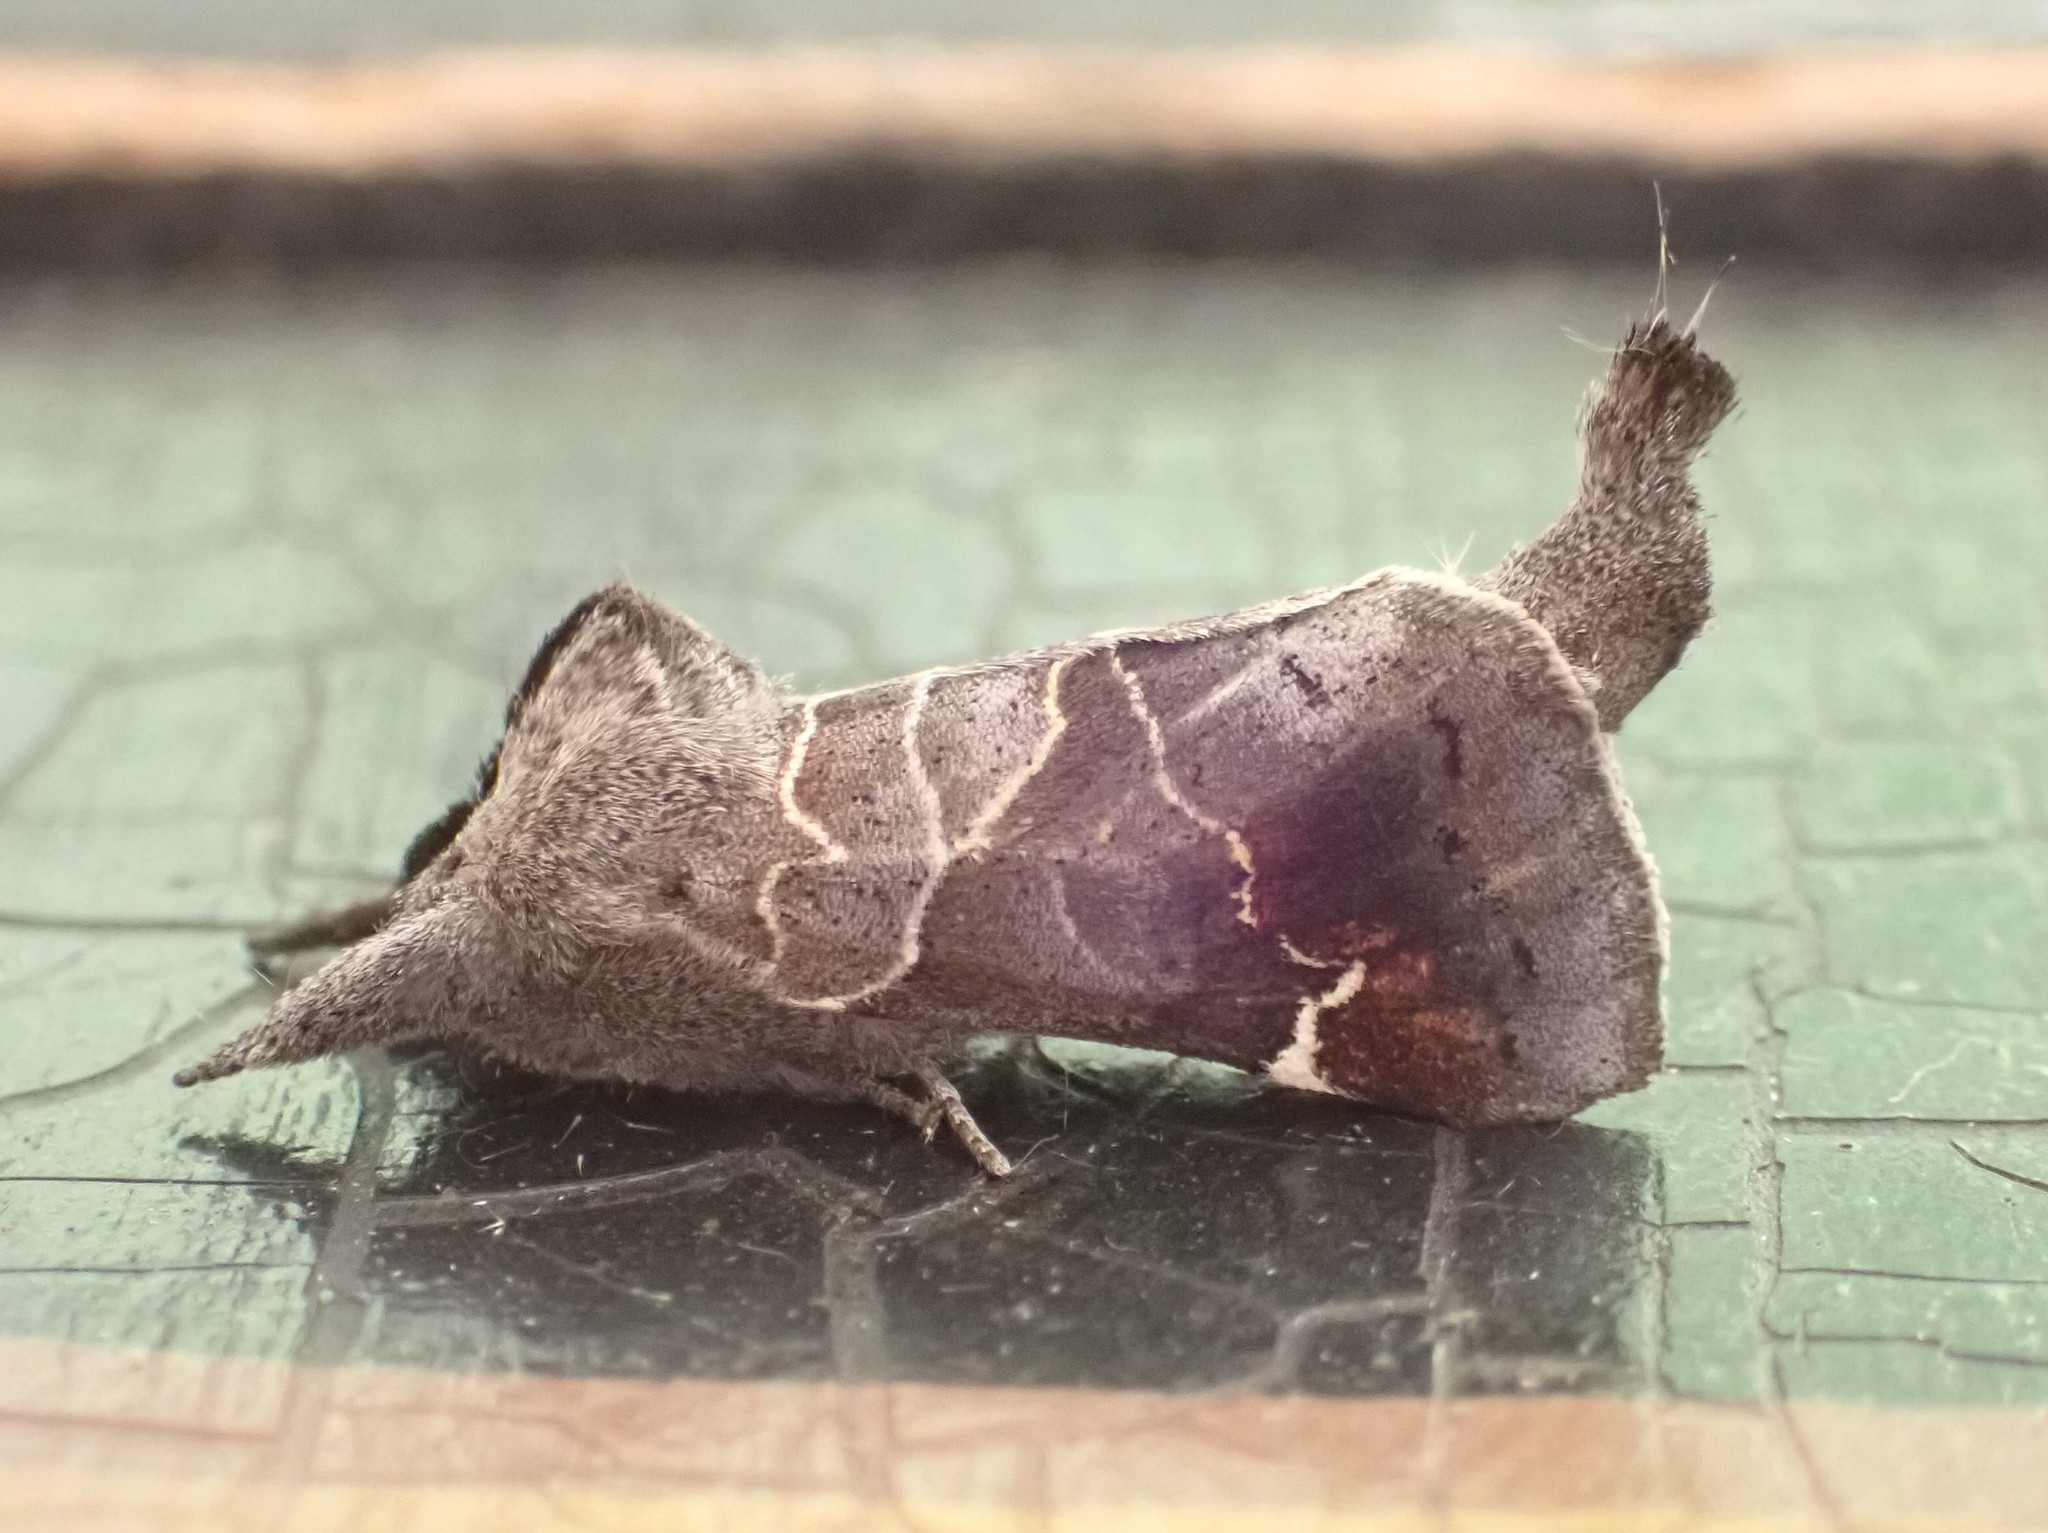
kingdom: Animalia
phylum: Arthropoda
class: Insecta
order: Lepidoptera
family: Notodontidae
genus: Clostera
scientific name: Clostera apicalis
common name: Apical prominent
